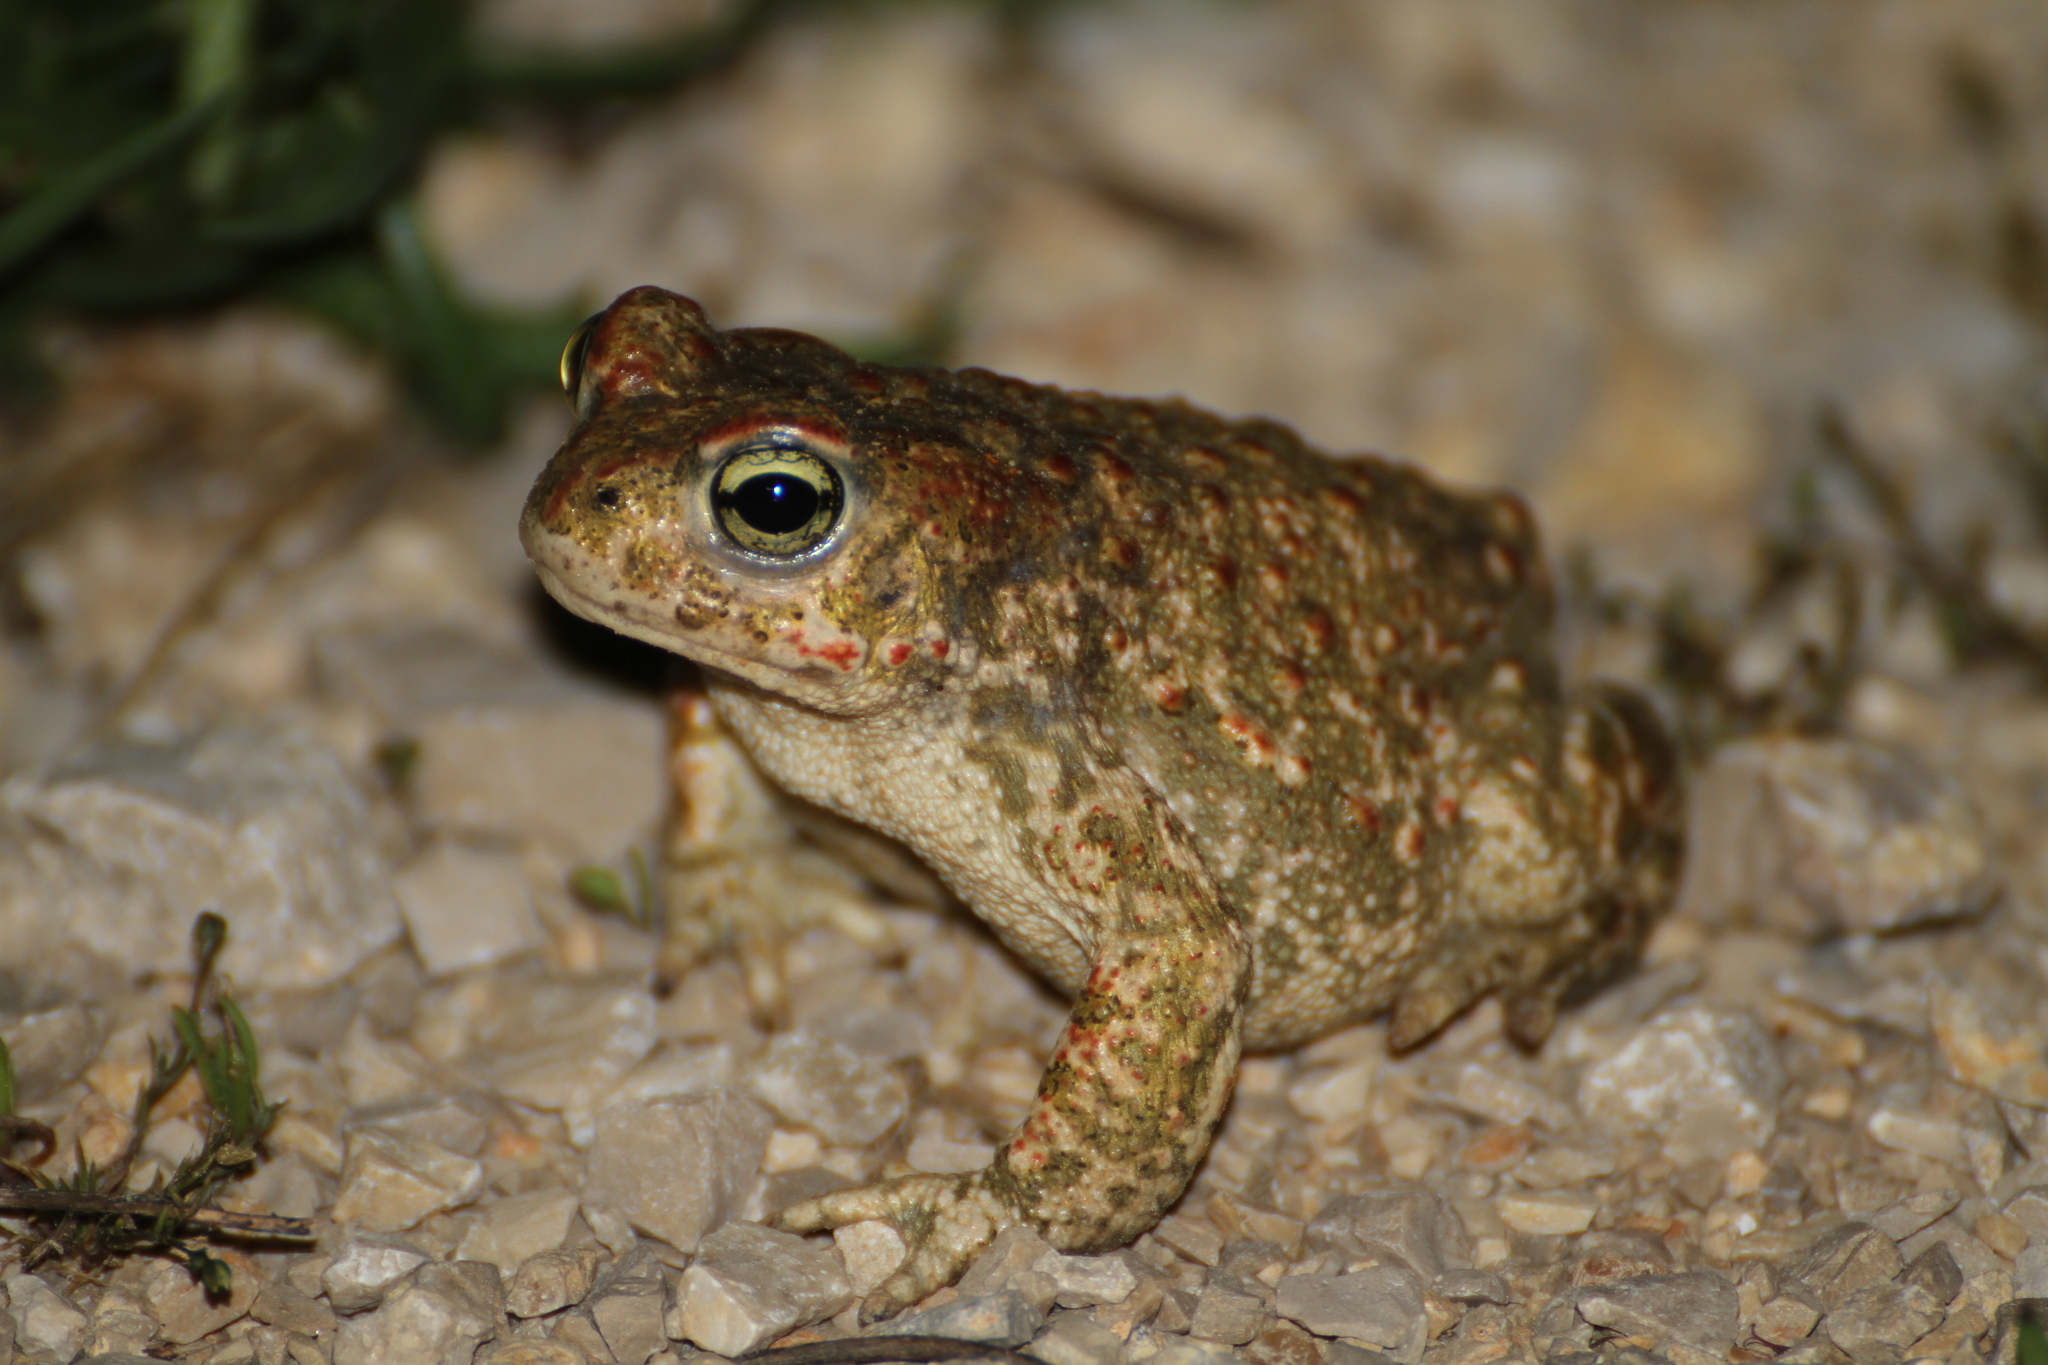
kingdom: Animalia
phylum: Chordata
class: Amphibia
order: Anura
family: Bufonidae
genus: Epidalea
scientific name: Epidalea calamita
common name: Natterjack toad
